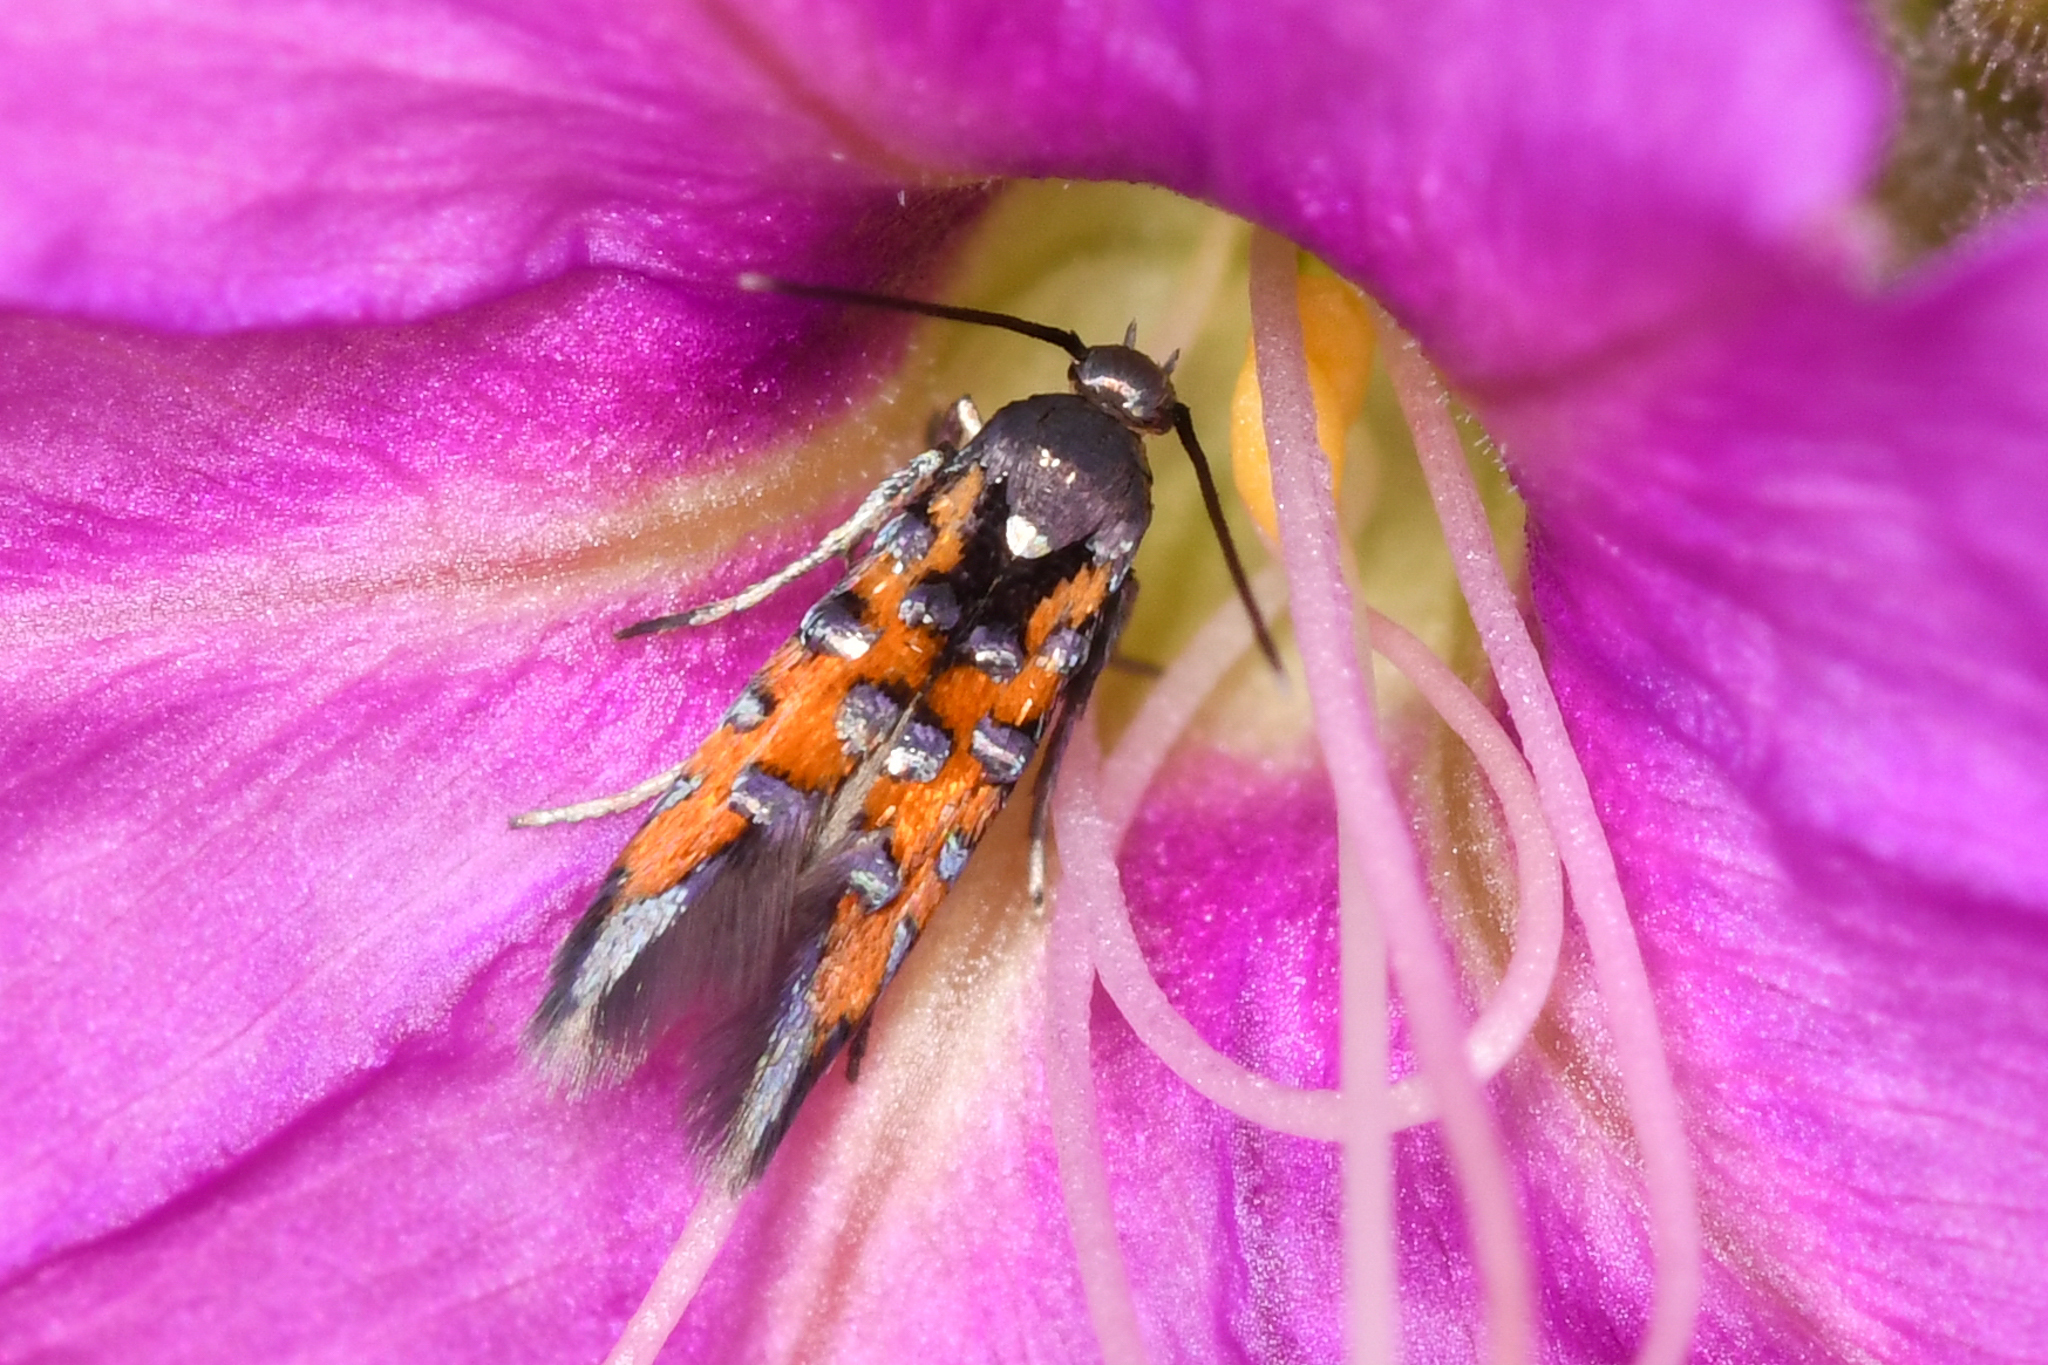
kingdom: Animalia
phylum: Arthropoda
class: Insecta
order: Lepidoptera
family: Heliodinidae
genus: Neoheliodines
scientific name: Neoheliodines
